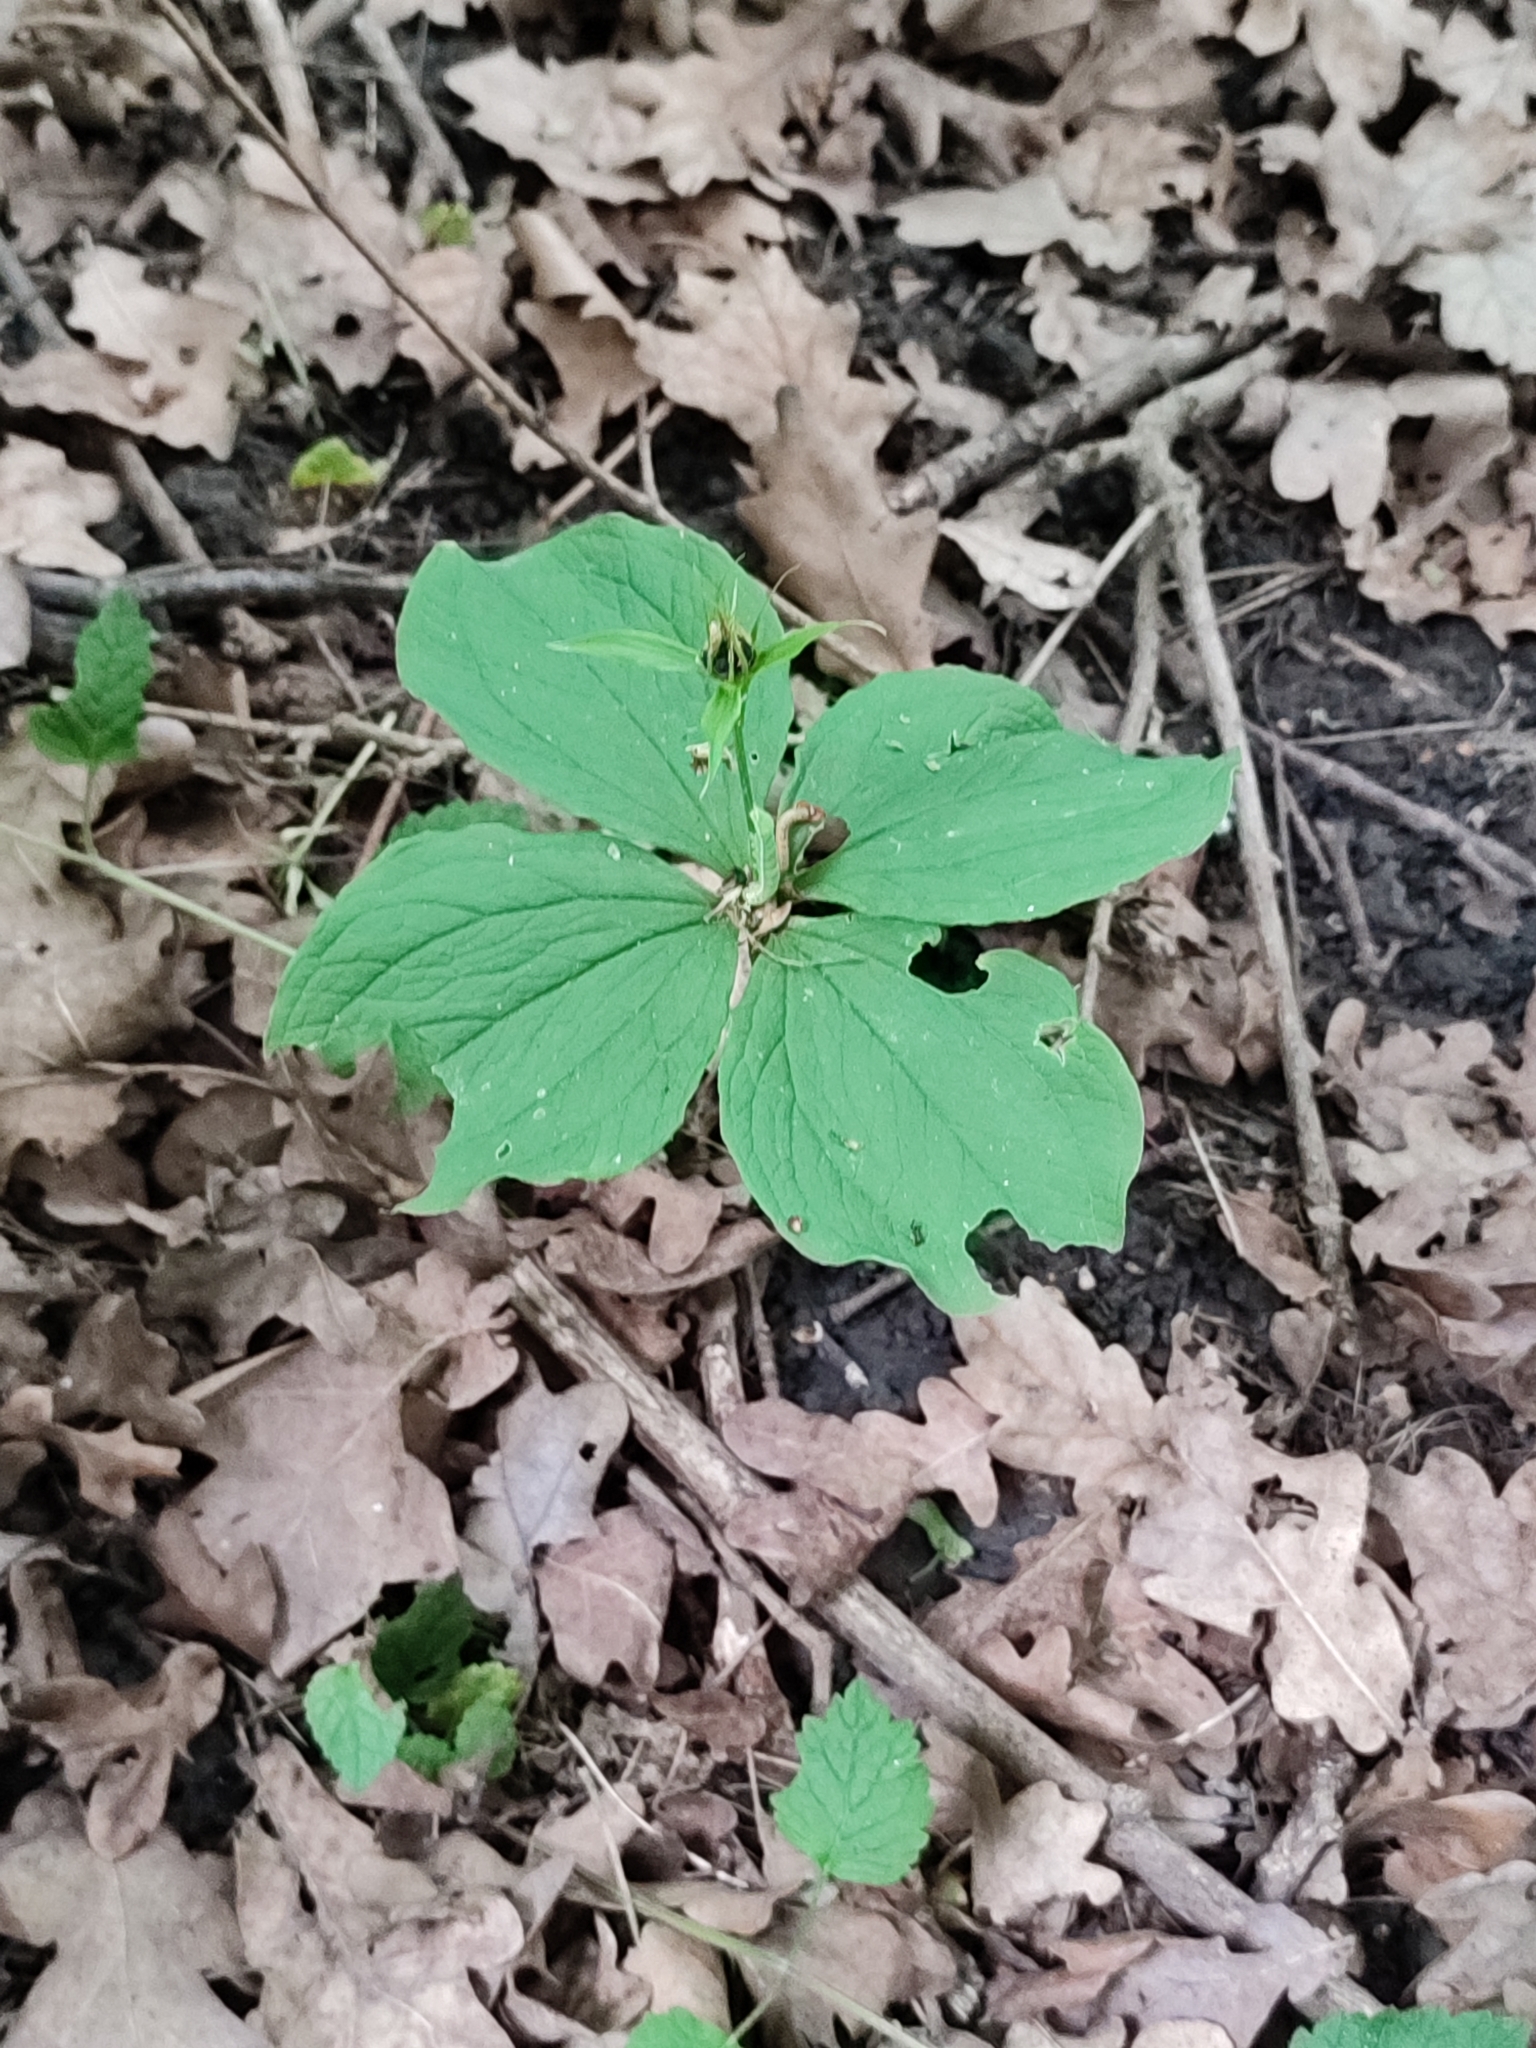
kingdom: Plantae
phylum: Tracheophyta
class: Liliopsida
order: Liliales
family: Melanthiaceae
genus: Paris
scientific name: Paris quadrifolia
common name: Herb-paris
